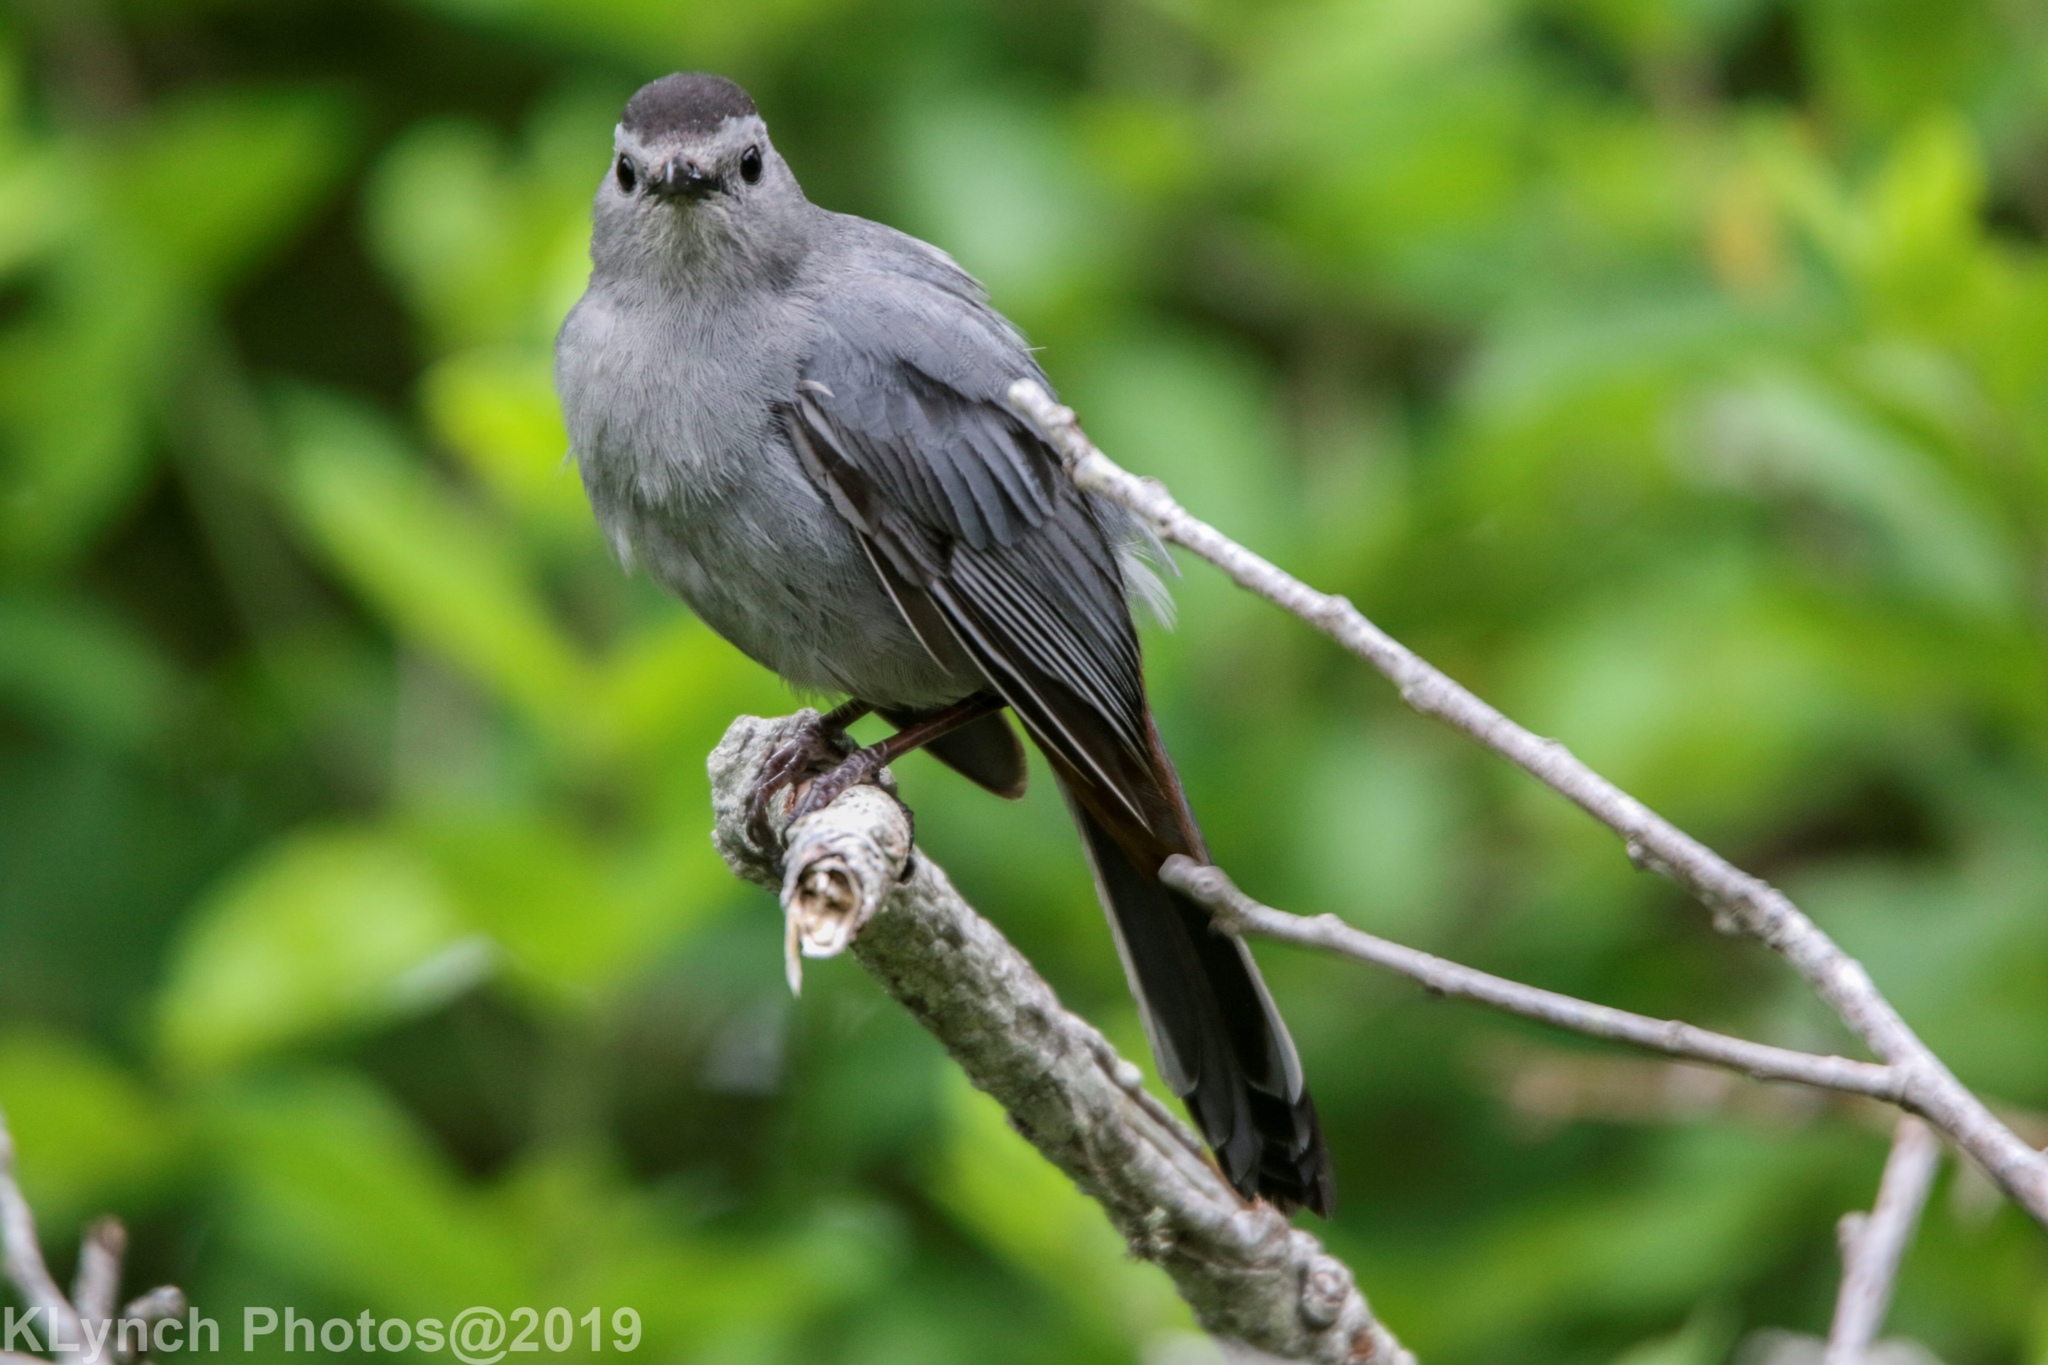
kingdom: Animalia
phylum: Chordata
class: Aves
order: Passeriformes
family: Mimidae
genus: Dumetella
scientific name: Dumetella carolinensis
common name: Gray catbird
